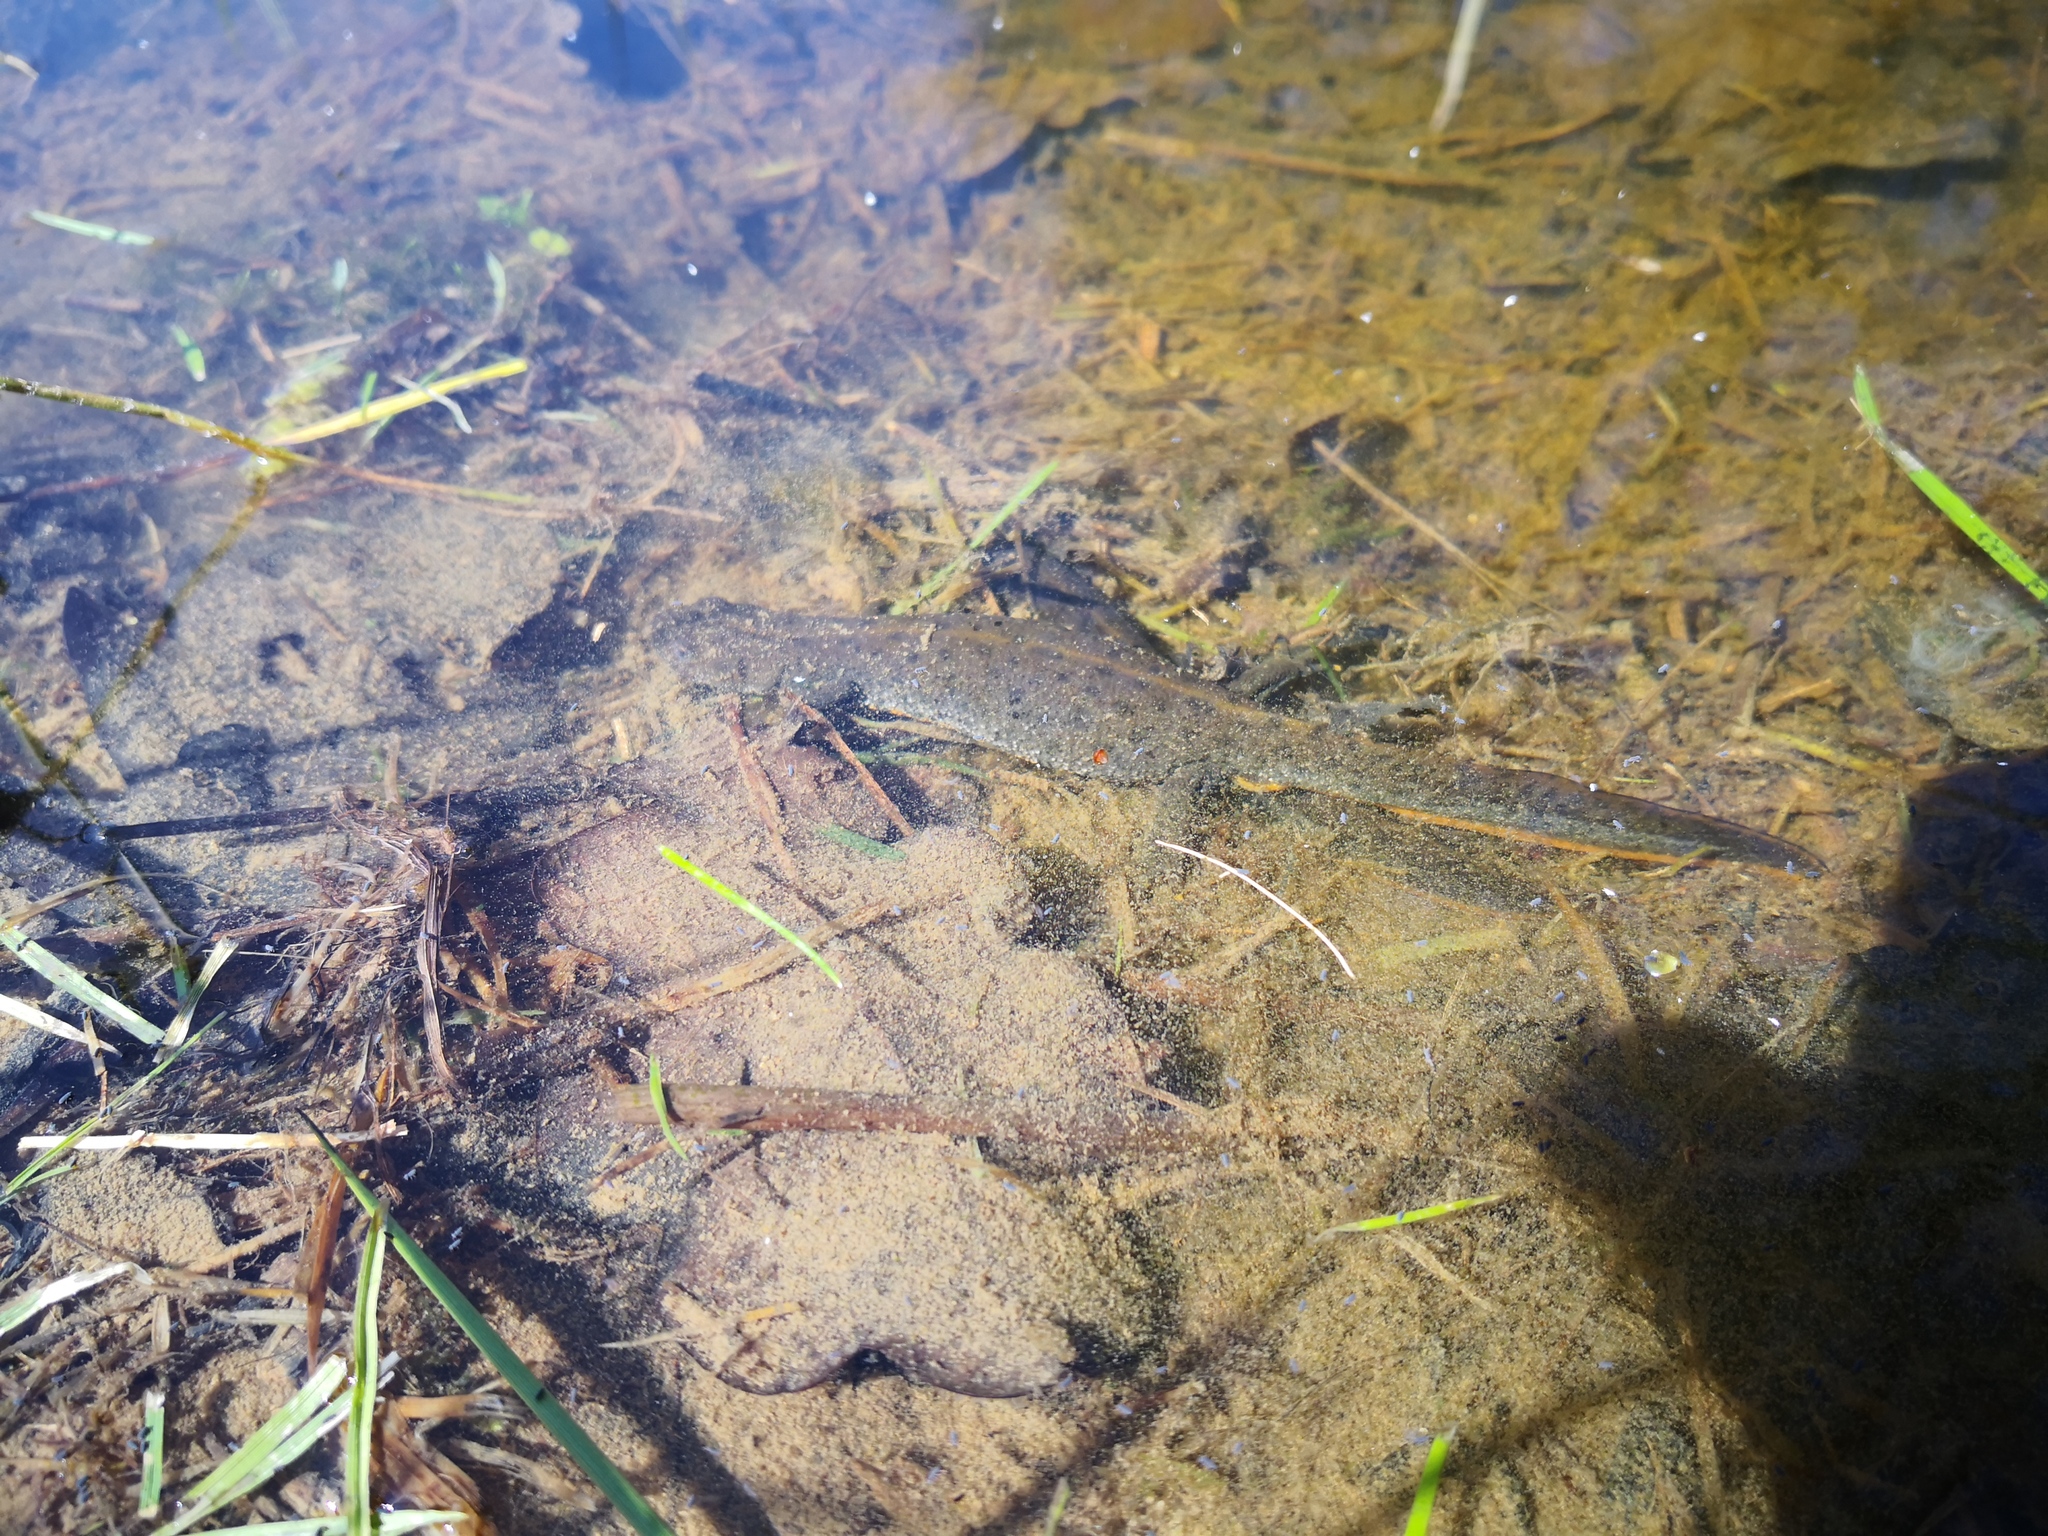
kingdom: Animalia
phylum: Chordata
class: Amphibia
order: Caudata
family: Salamandridae
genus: Triturus
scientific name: Triturus cristatus
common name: Crested newt
